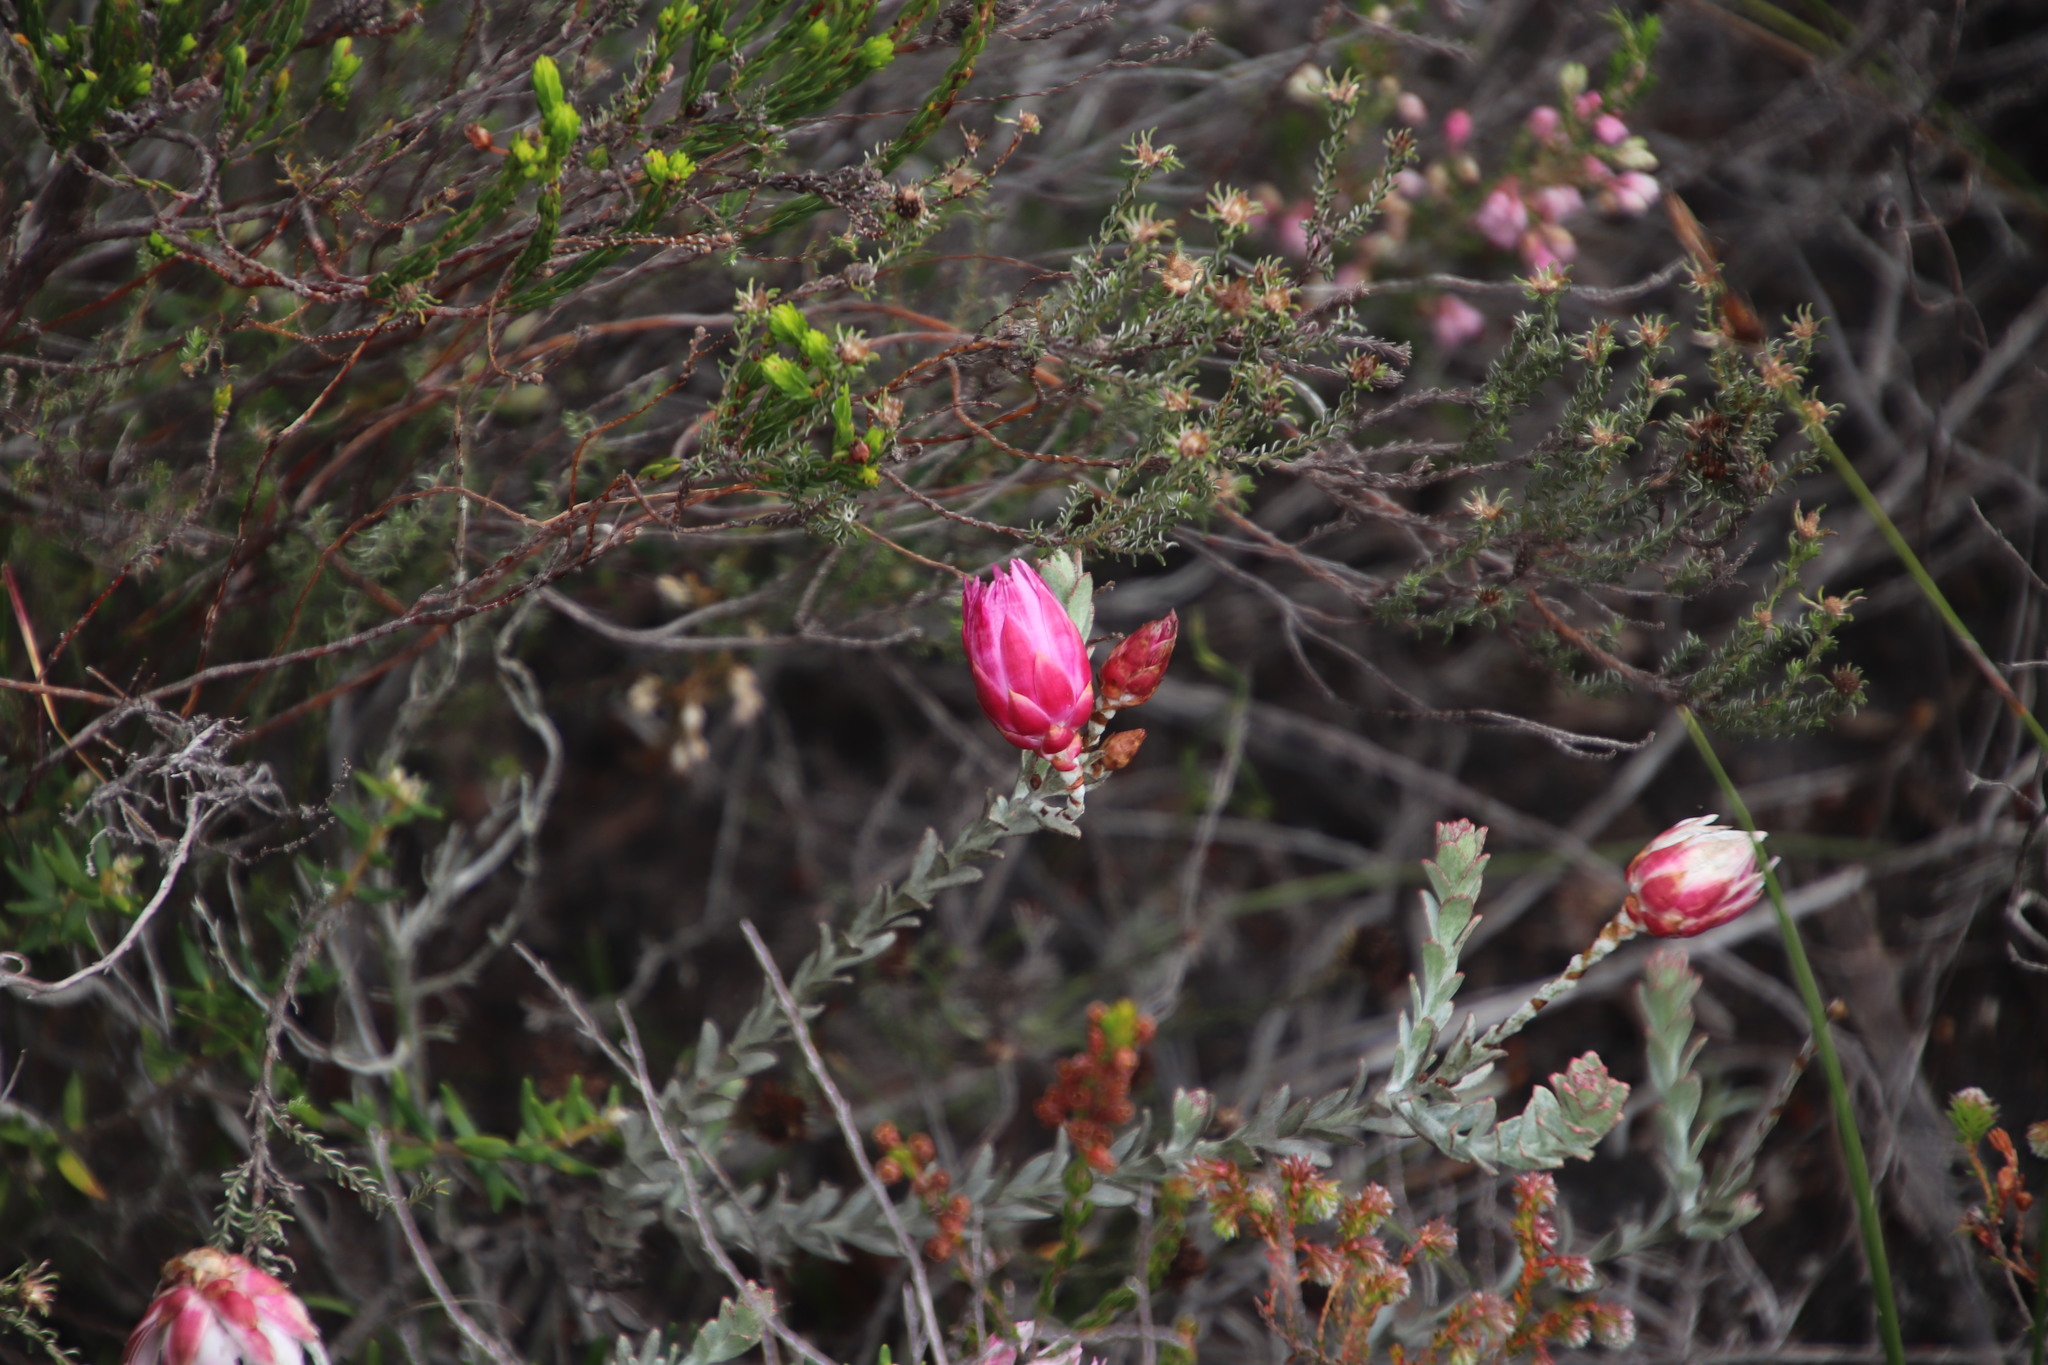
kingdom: Plantae
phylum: Tracheophyta
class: Magnoliopsida
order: Asterales
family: Asteraceae
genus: Syncarpha
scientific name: Syncarpha canescens
